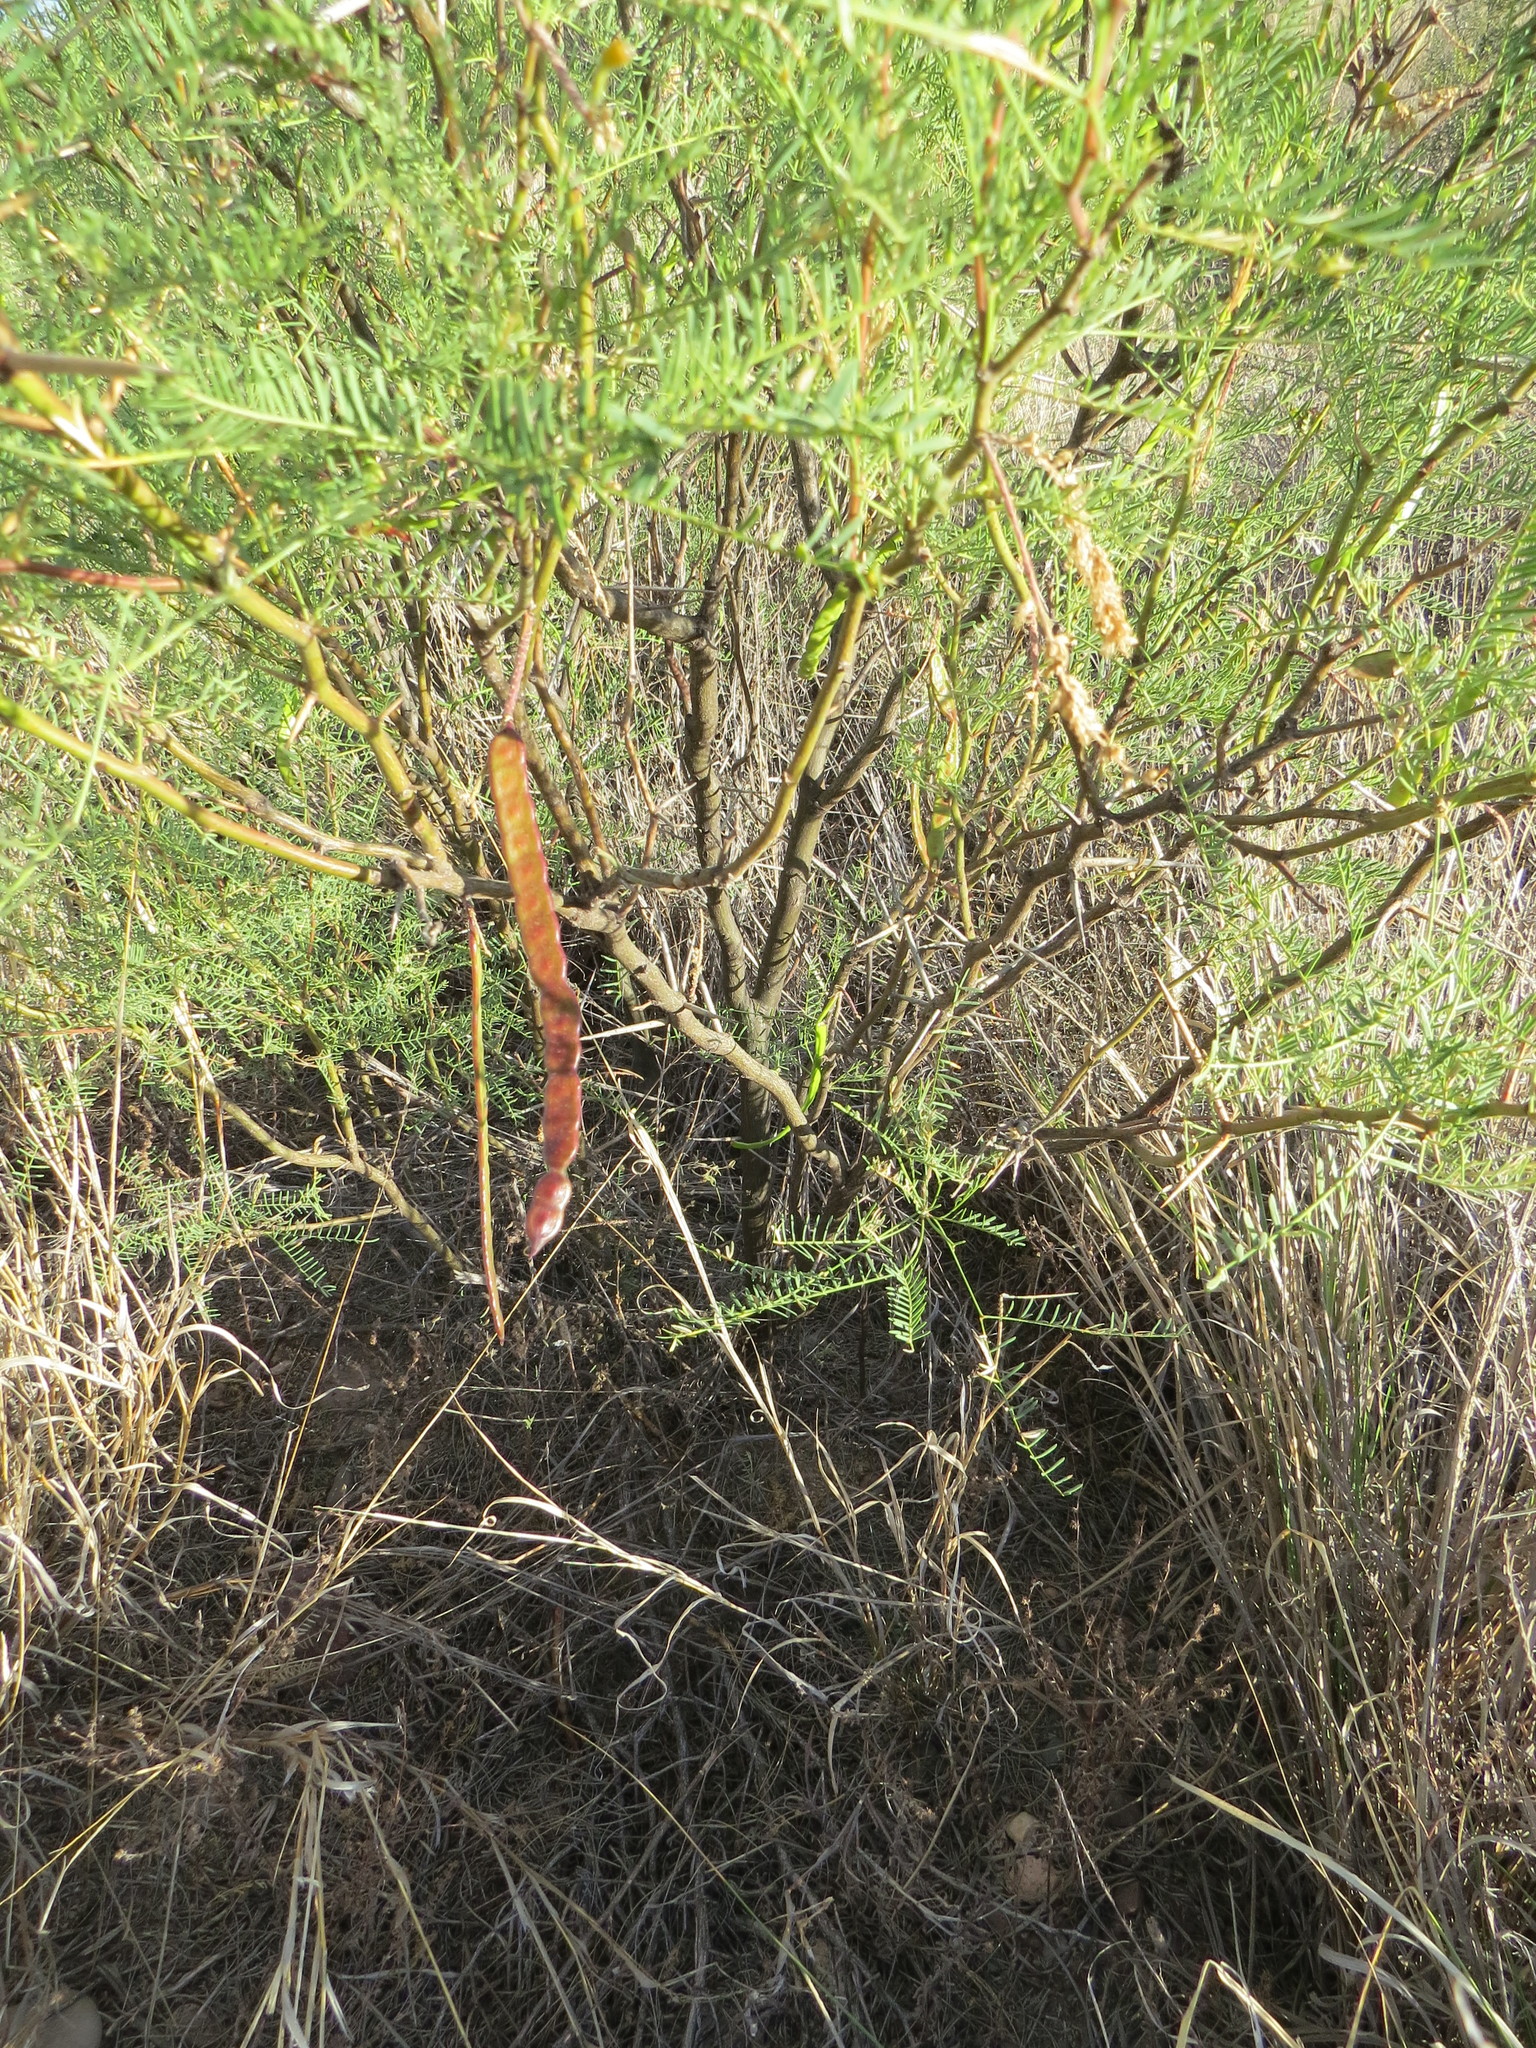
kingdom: Plantae
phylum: Tracheophyta
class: Magnoliopsida
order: Fabales
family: Fabaceae
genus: Prosopis
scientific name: Prosopis flexuosa
